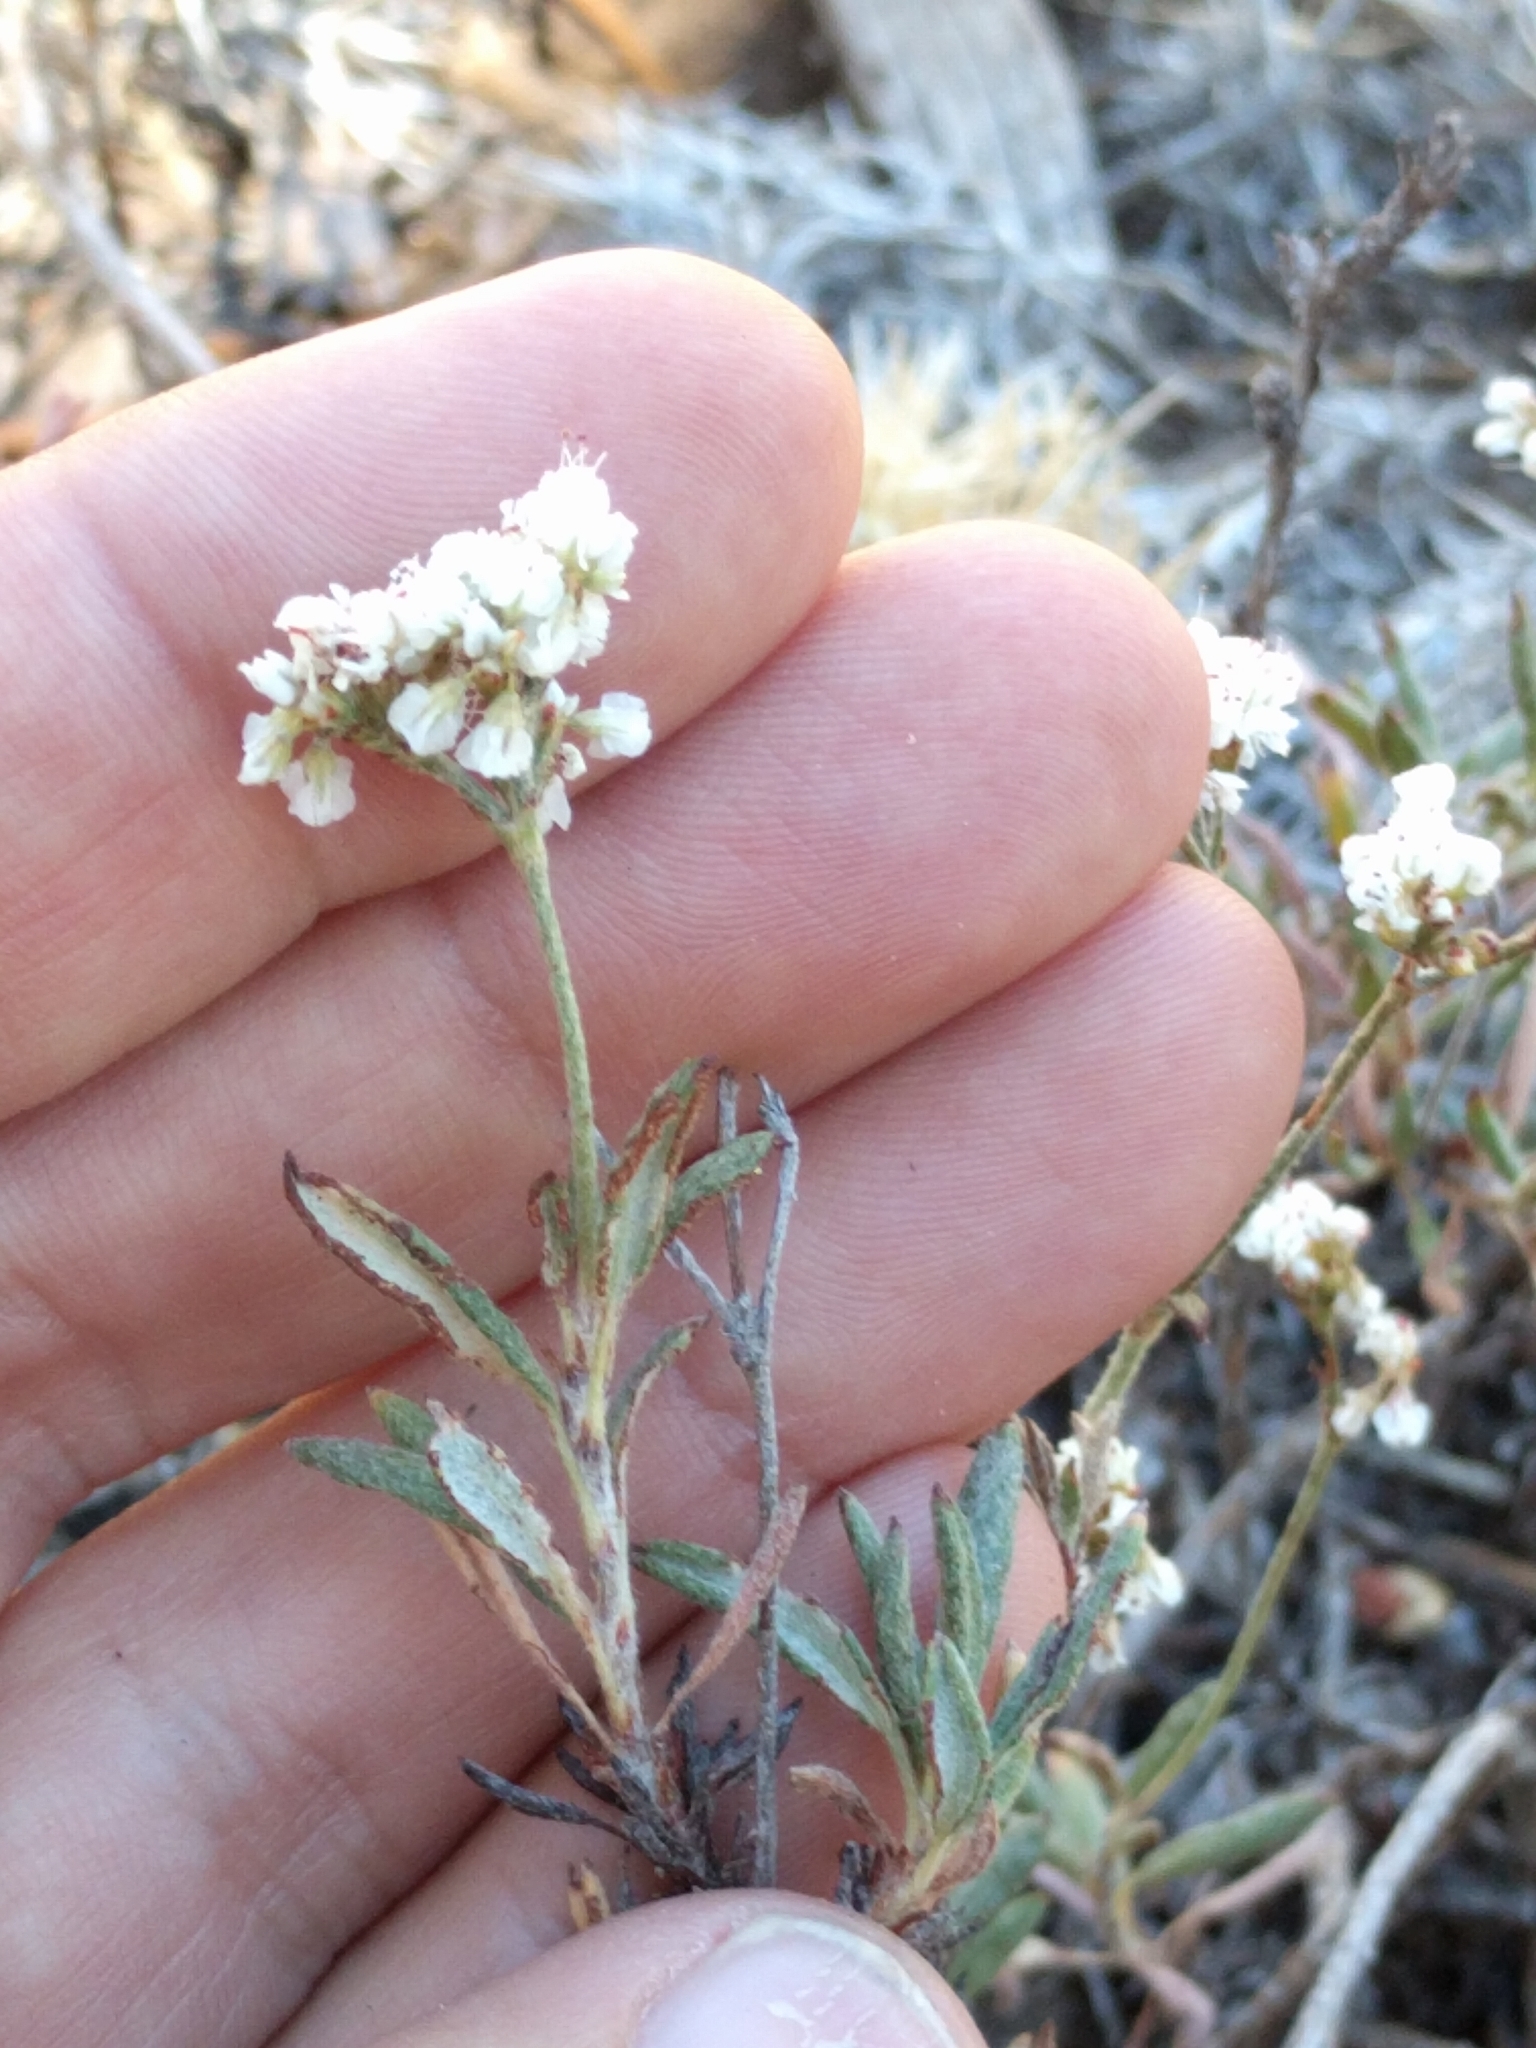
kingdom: Plantae
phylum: Tracheophyta
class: Magnoliopsida
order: Caryophyllales
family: Polygonaceae
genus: Eriogonum
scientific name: Eriogonum microtheca
